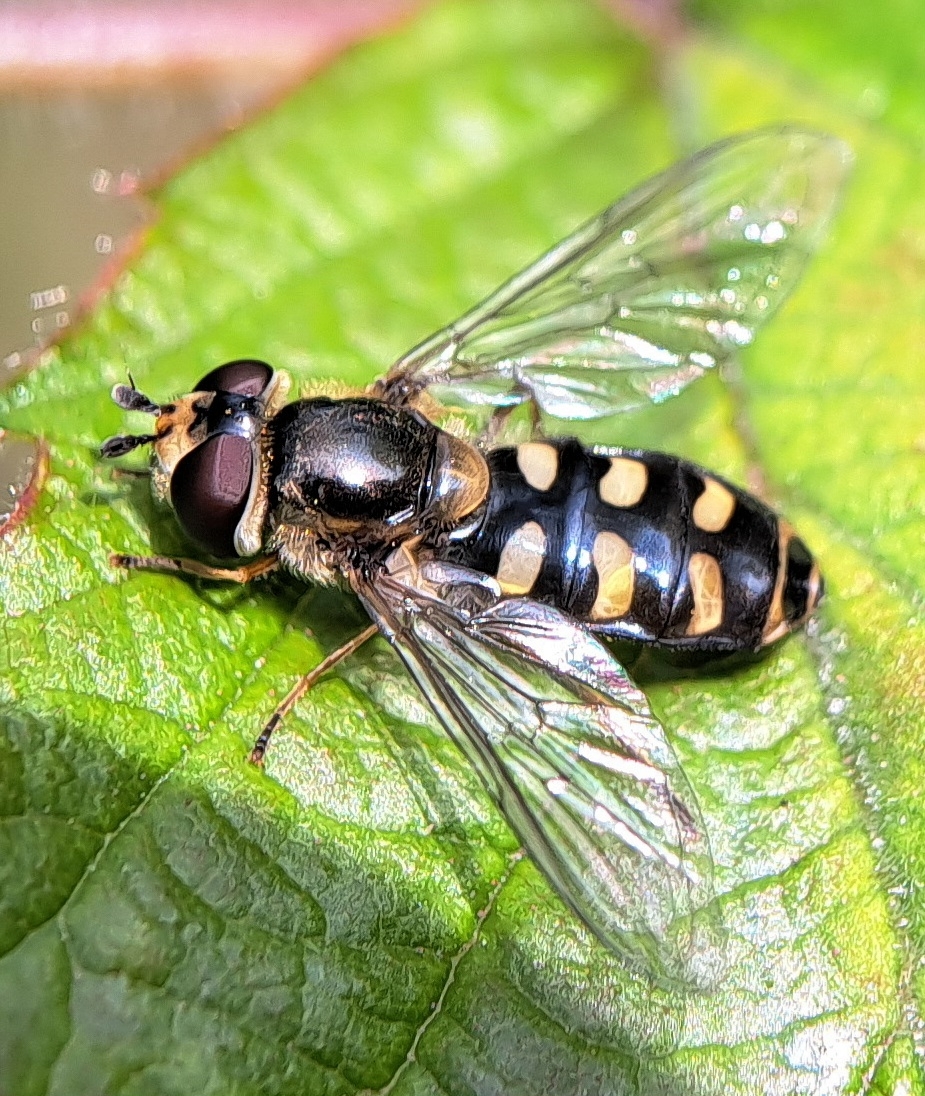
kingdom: Animalia
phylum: Arthropoda
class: Insecta
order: Diptera
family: Syrphidae
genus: Eupeodes
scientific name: Eupeodes luniger
